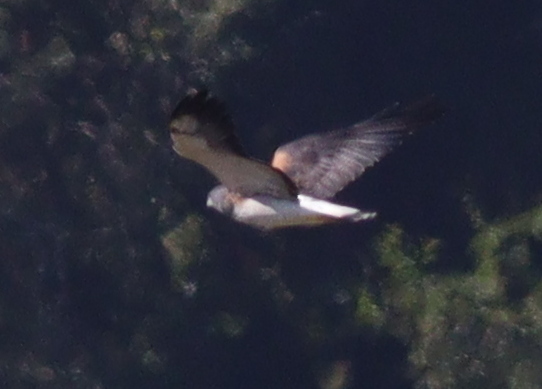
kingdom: Animalia
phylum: Chordata
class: Aves
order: Accipitriformes
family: Accipitridae
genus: Buteo
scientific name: Buteo albicaudatus
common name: White-tailed hawk
